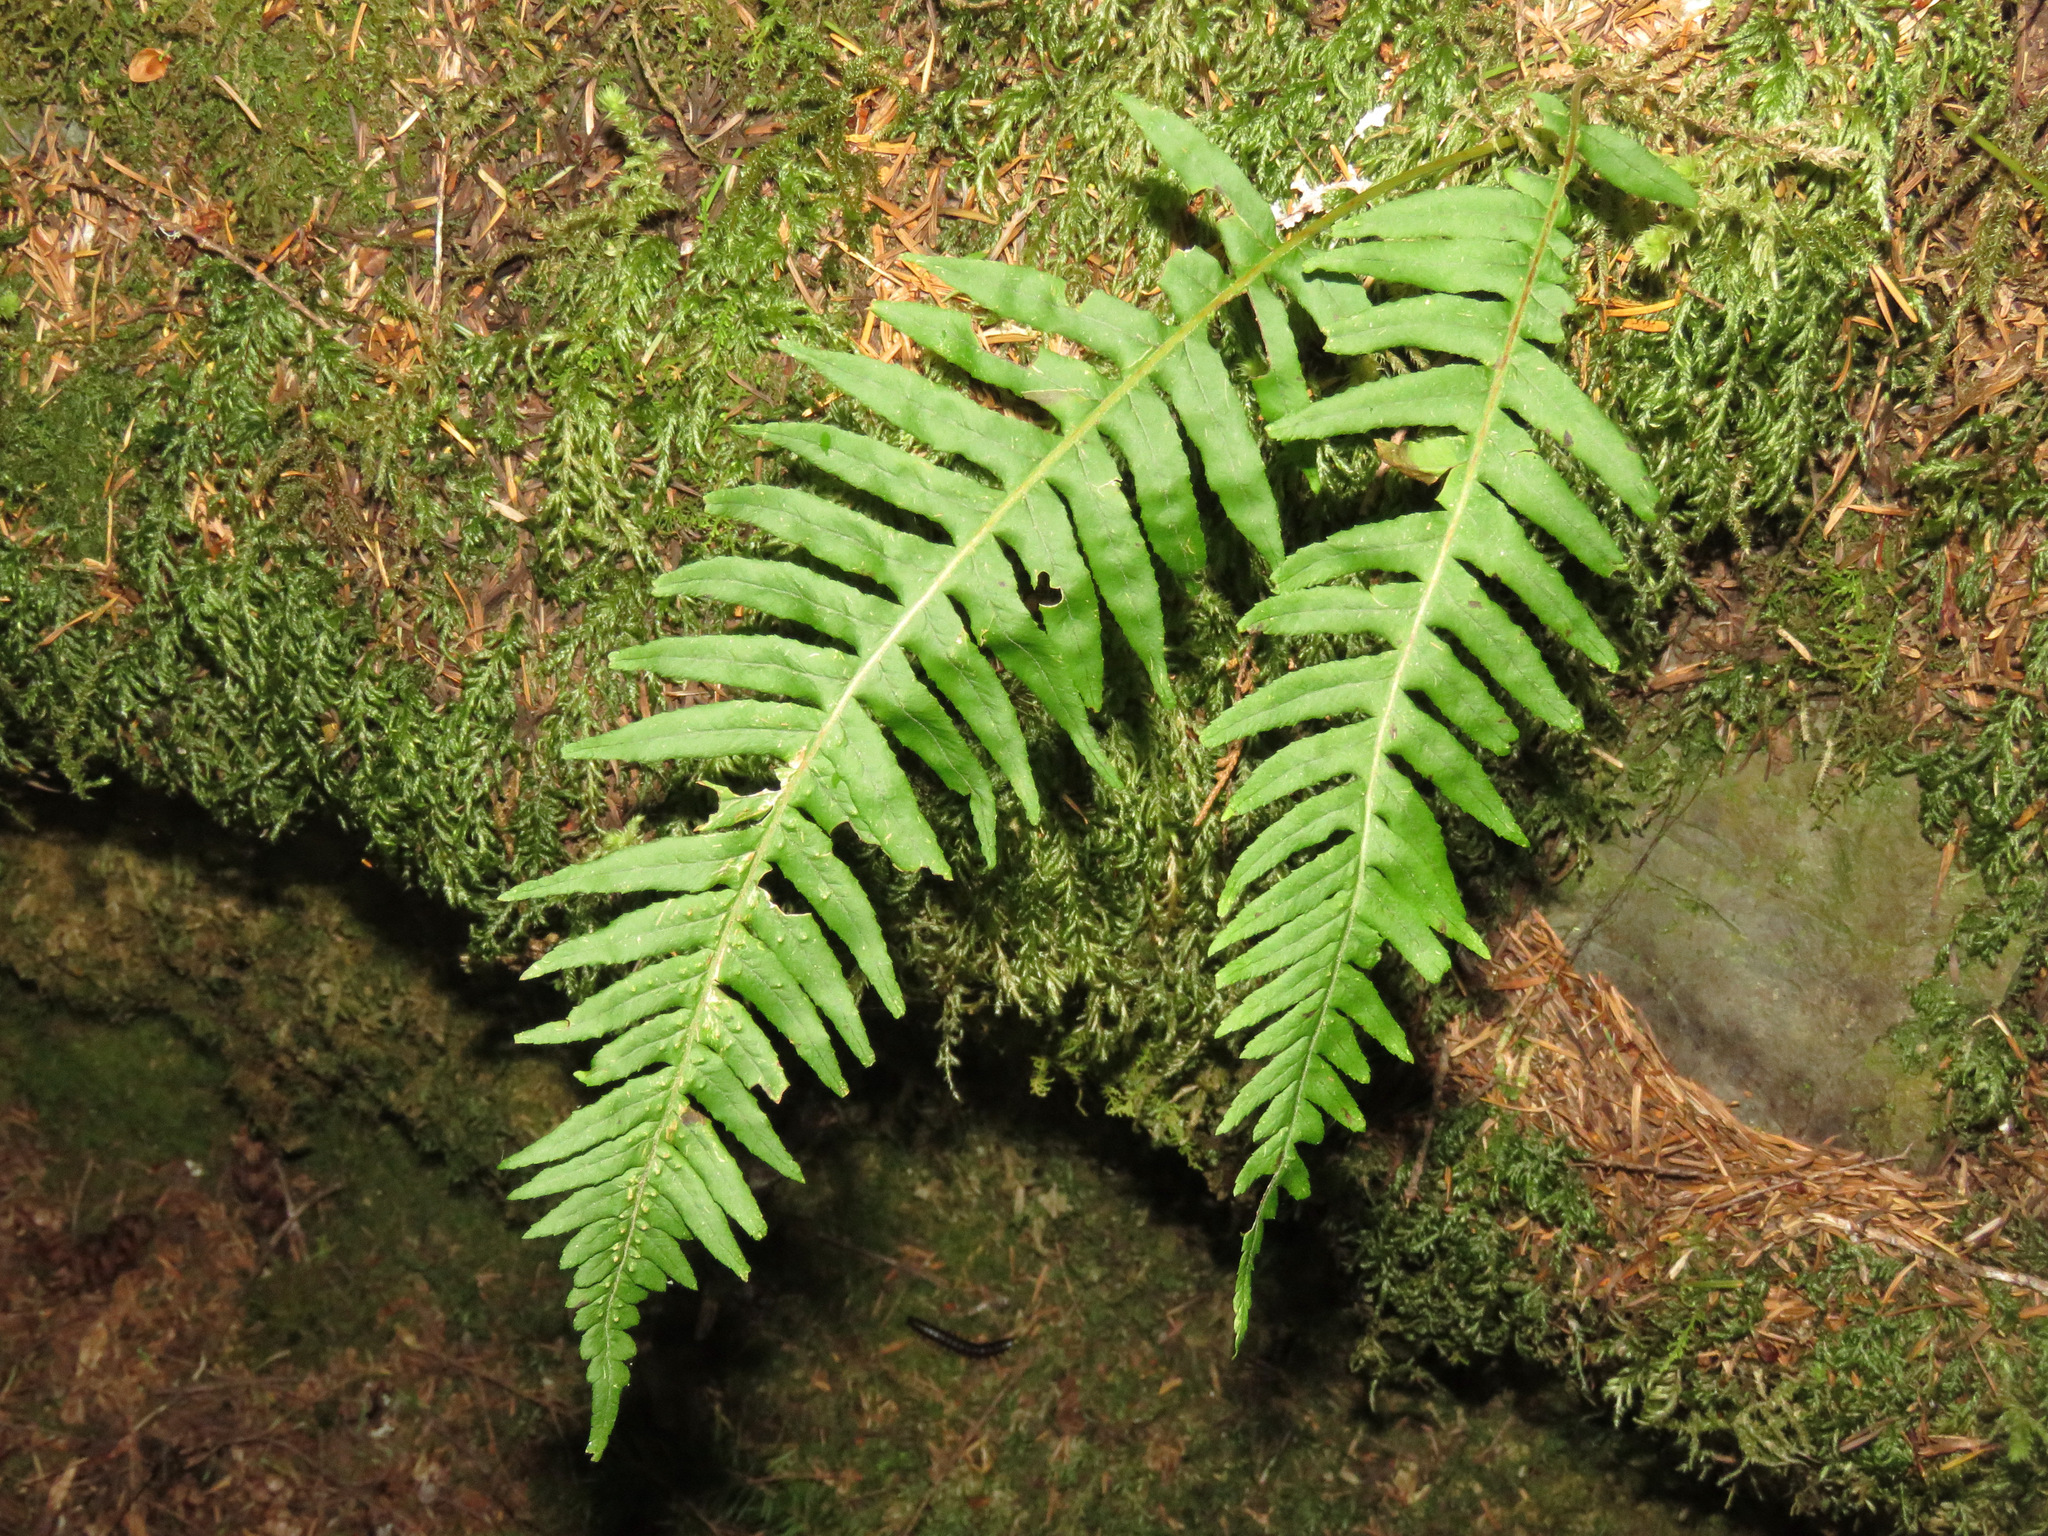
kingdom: Plantae
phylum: Tracheophyta
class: Polypodiopsida
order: Polypodiales
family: Polypodiaceae
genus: Polypodium
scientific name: Polypodium glycyrrhiza
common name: Licorice fern
